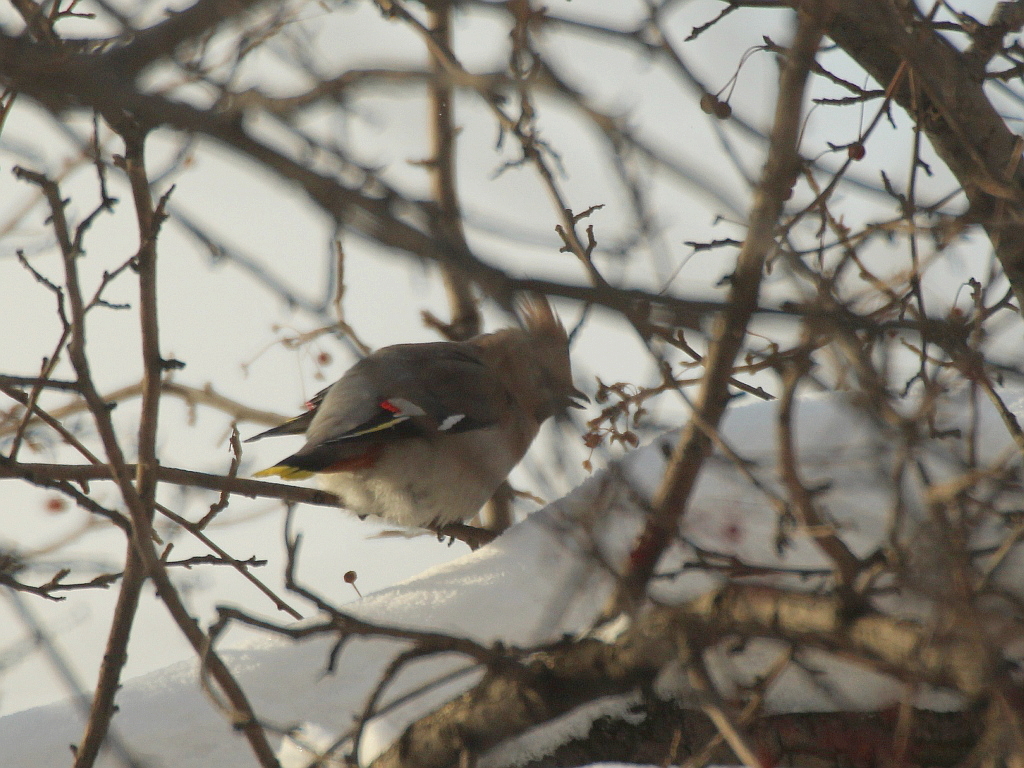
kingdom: Animalia
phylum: Chordata
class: Aves
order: Passeriformes
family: Bombycillidae
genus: Bombycilla
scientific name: Bombycilla garrulus
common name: Bohemian waxwing
